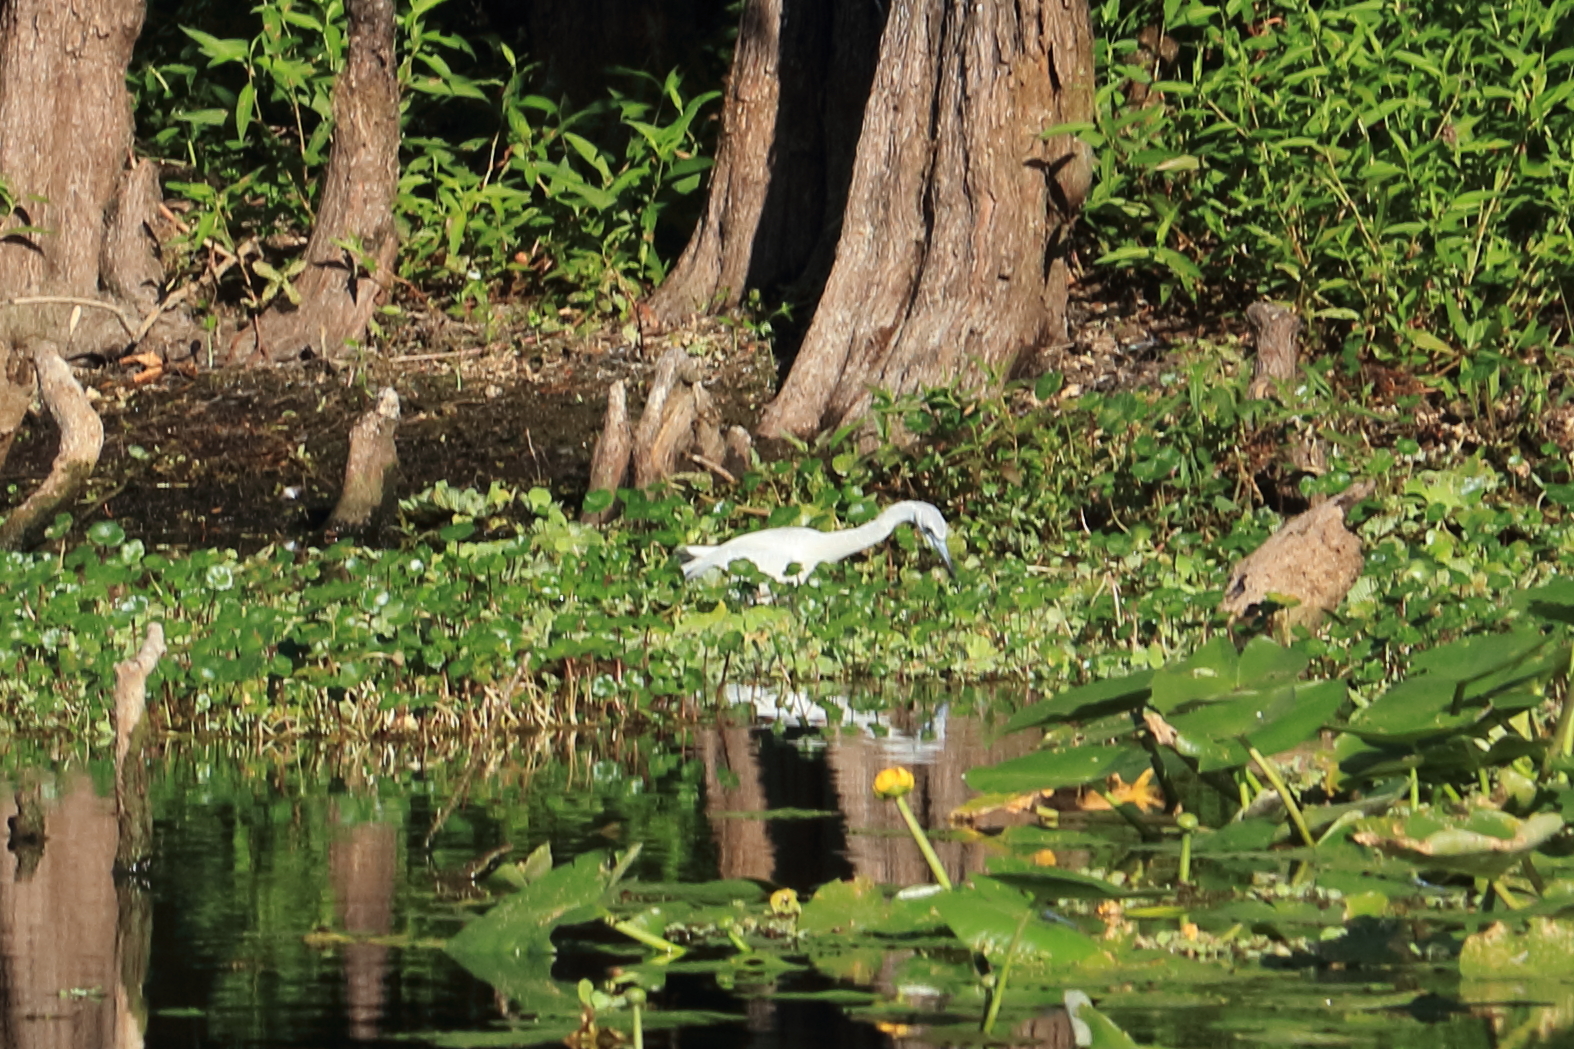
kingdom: Animalia
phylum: Chordata
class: Aves
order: Pelecaniformes
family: Ardeidae
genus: Egretta
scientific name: Egretta caerulea
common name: Little blue heron
